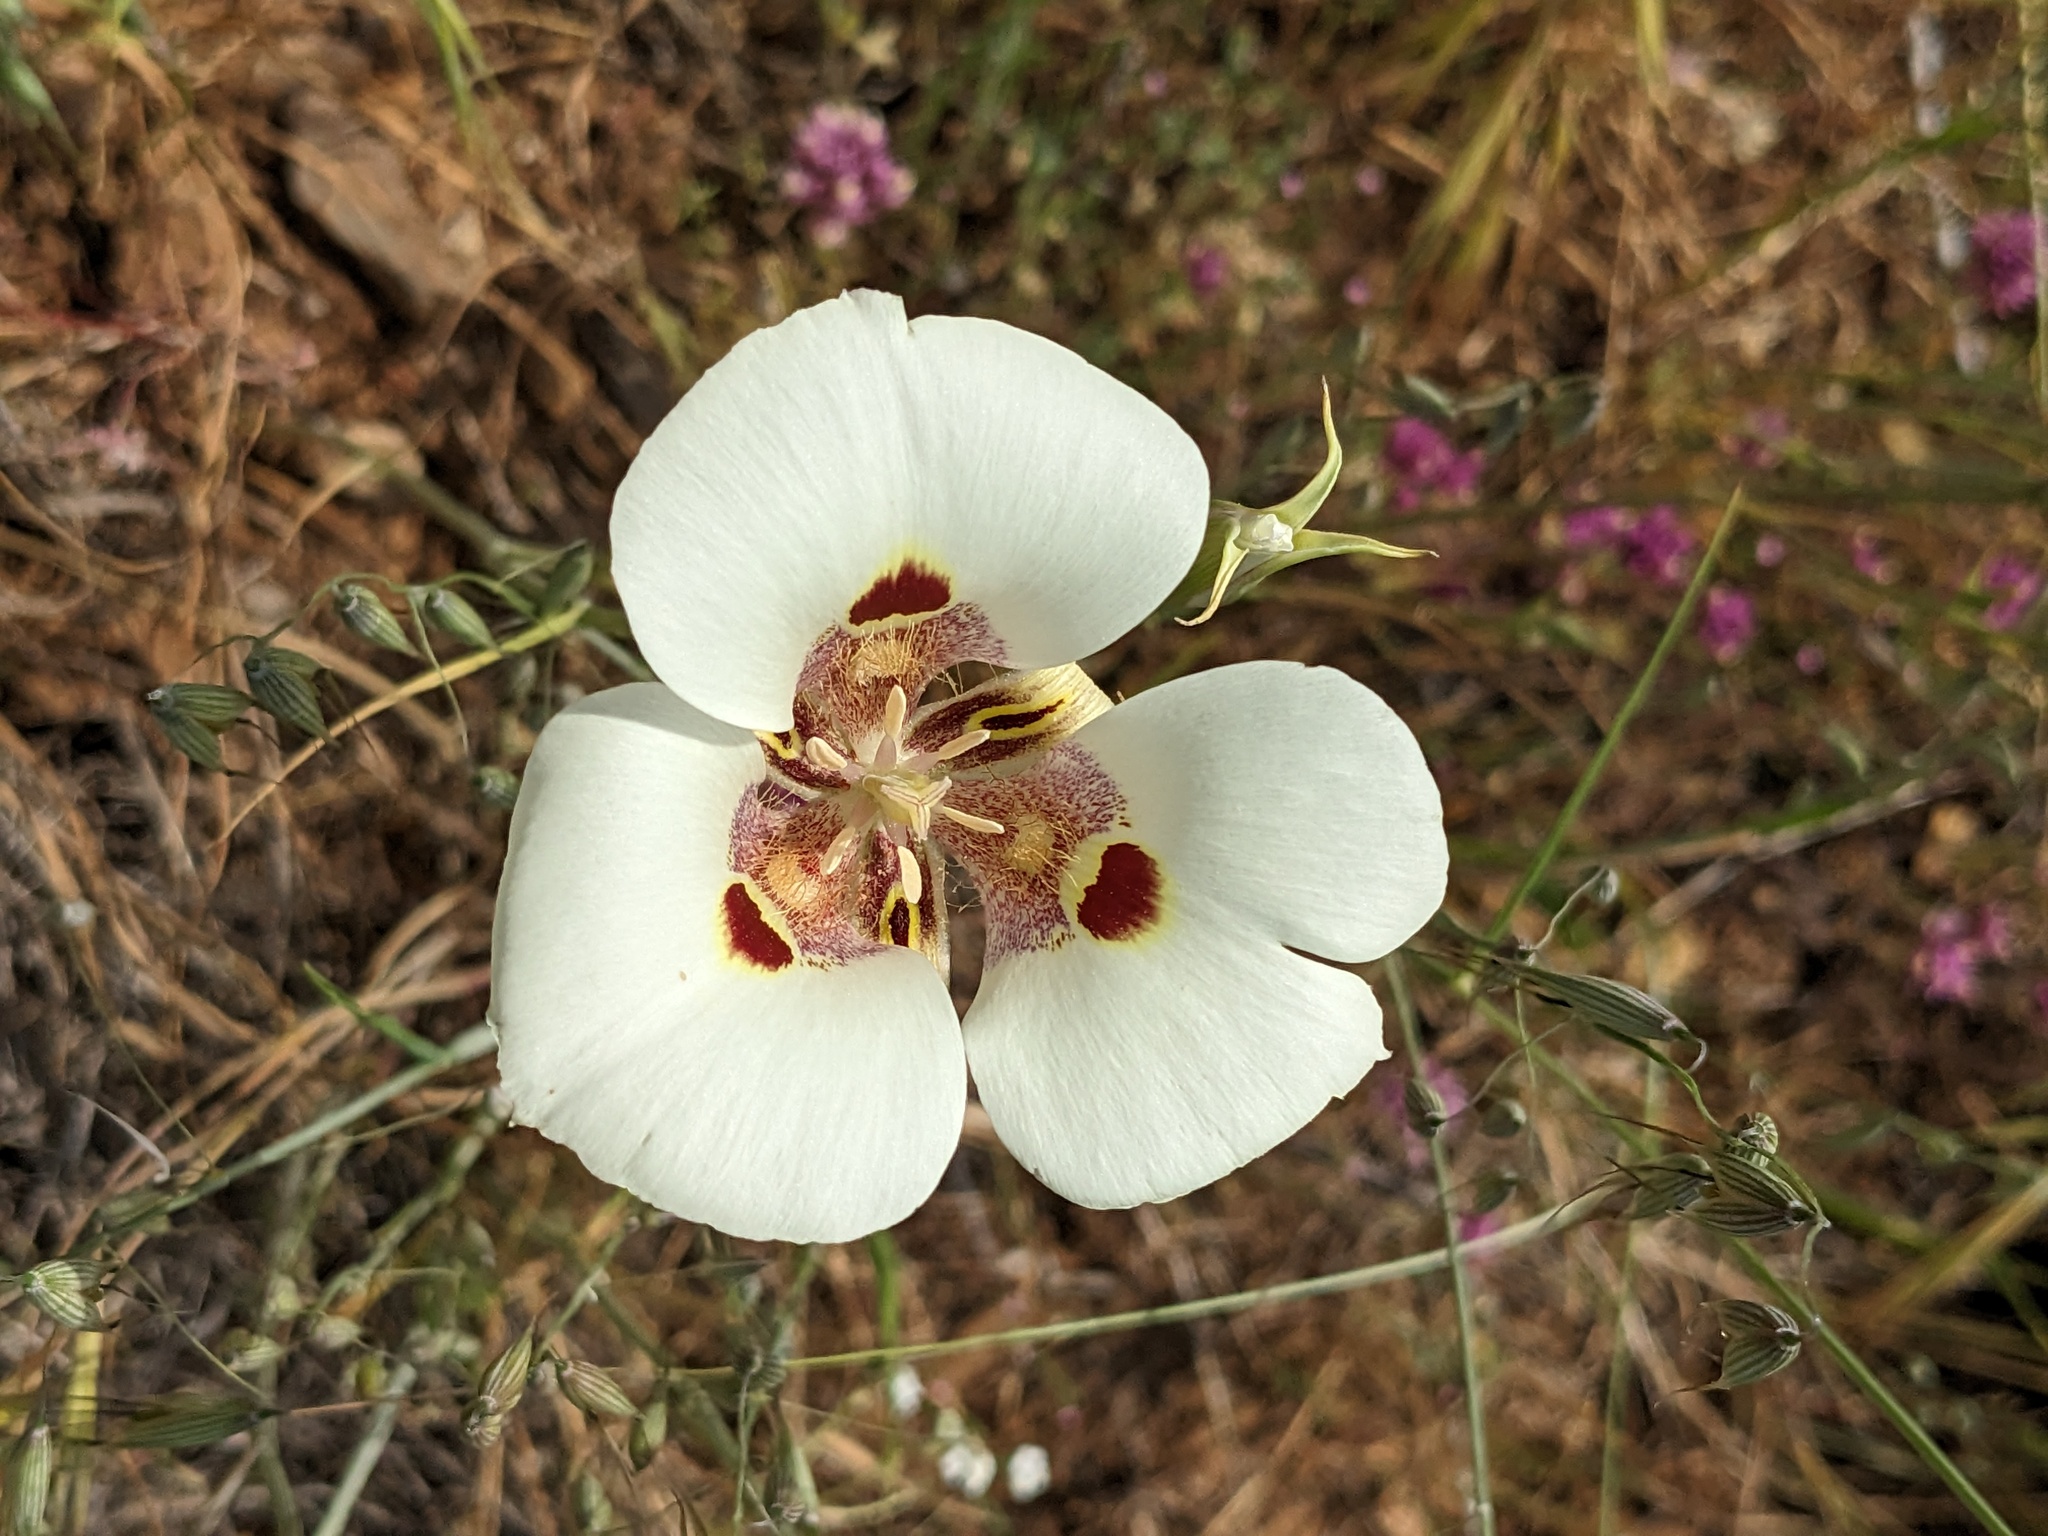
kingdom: Plantae
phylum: Tracheophyta
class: Liliopsida
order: Liliales
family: Liliaceae
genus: Calochortus
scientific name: Calochortus venustus
